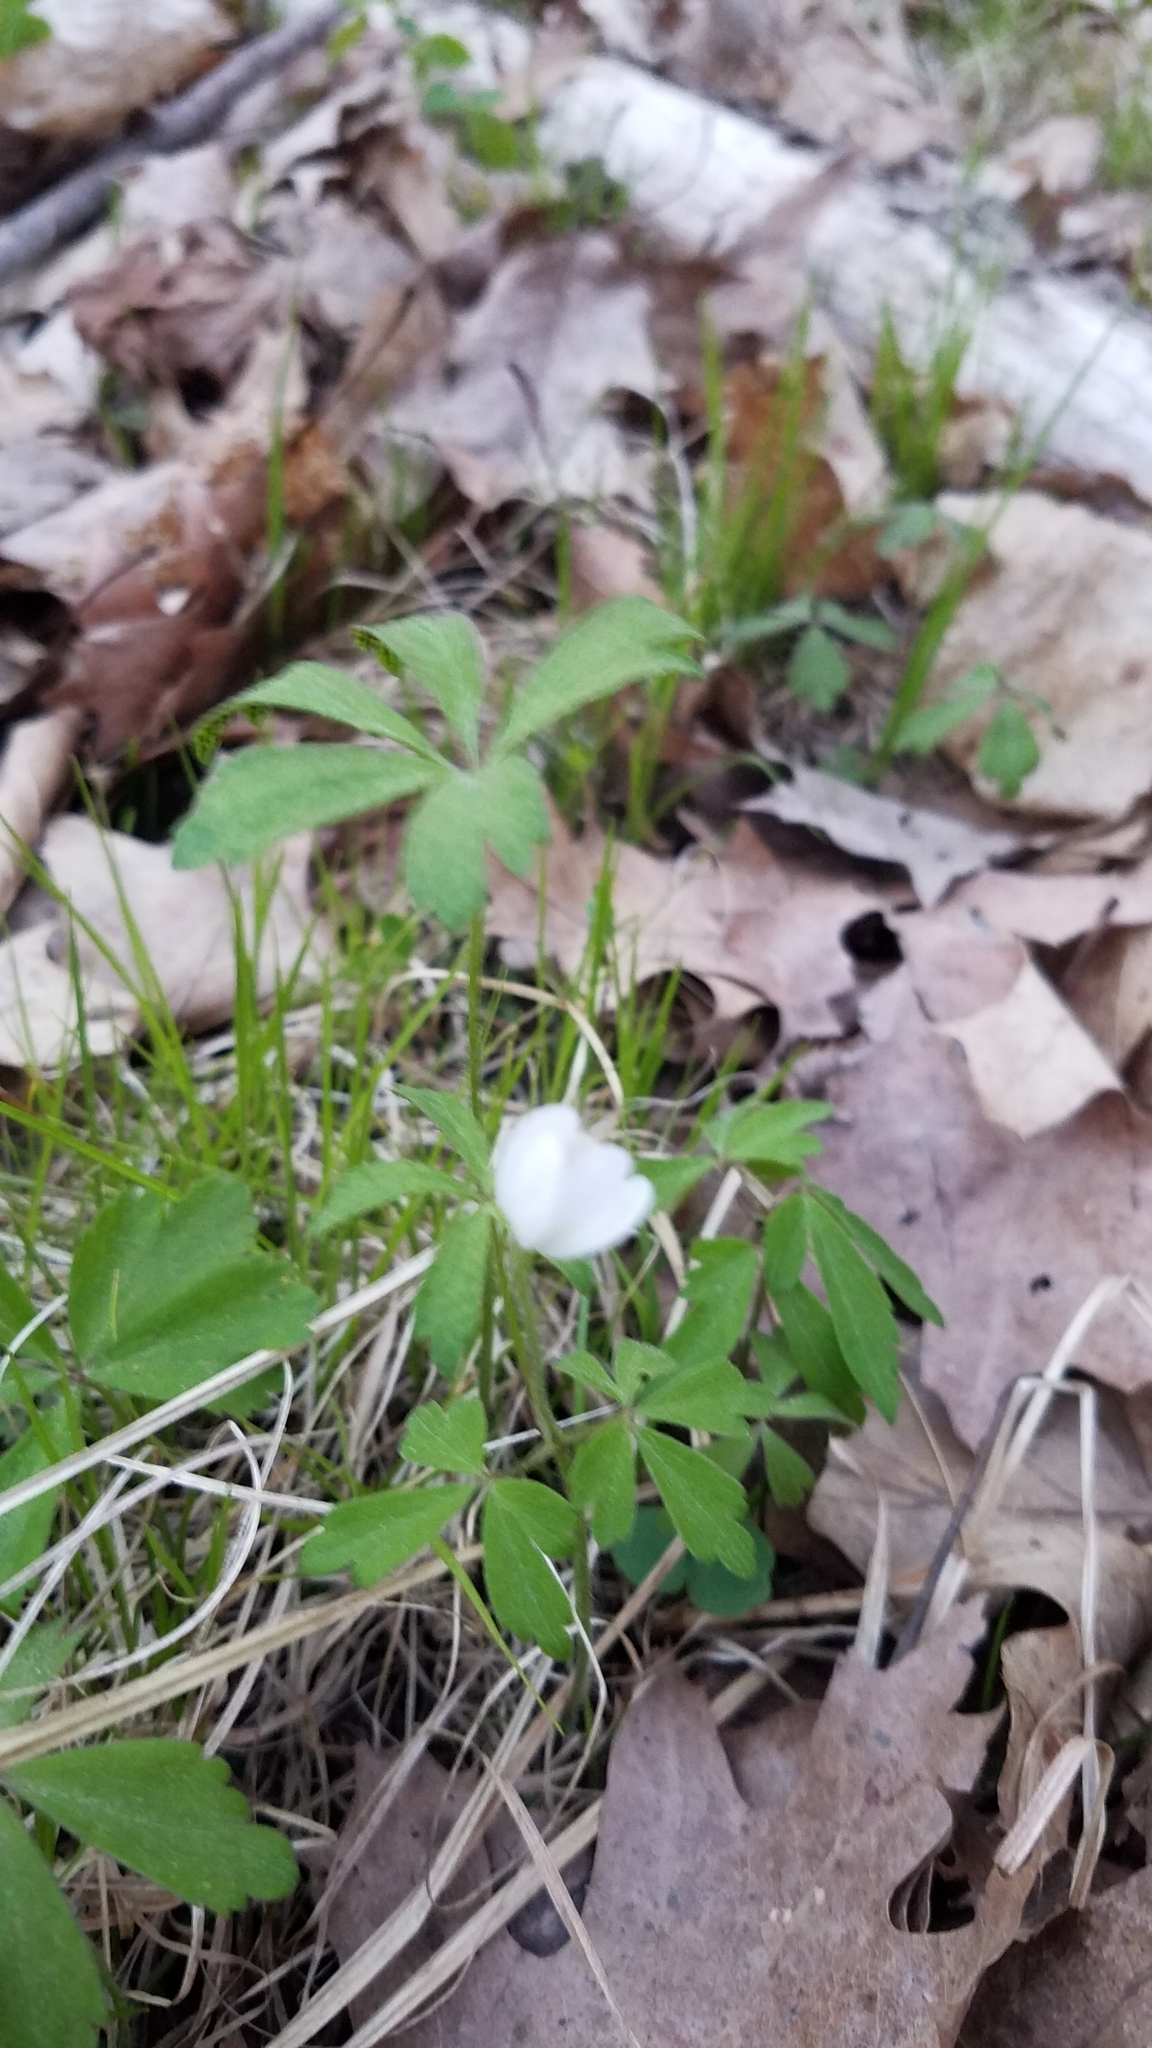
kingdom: Plantae
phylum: Tracheophyta
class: Magnoliopsida
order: Ranunculales
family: Ranunculaceae
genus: Anemone
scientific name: Anemone quinquefolia
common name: Wood anemone
